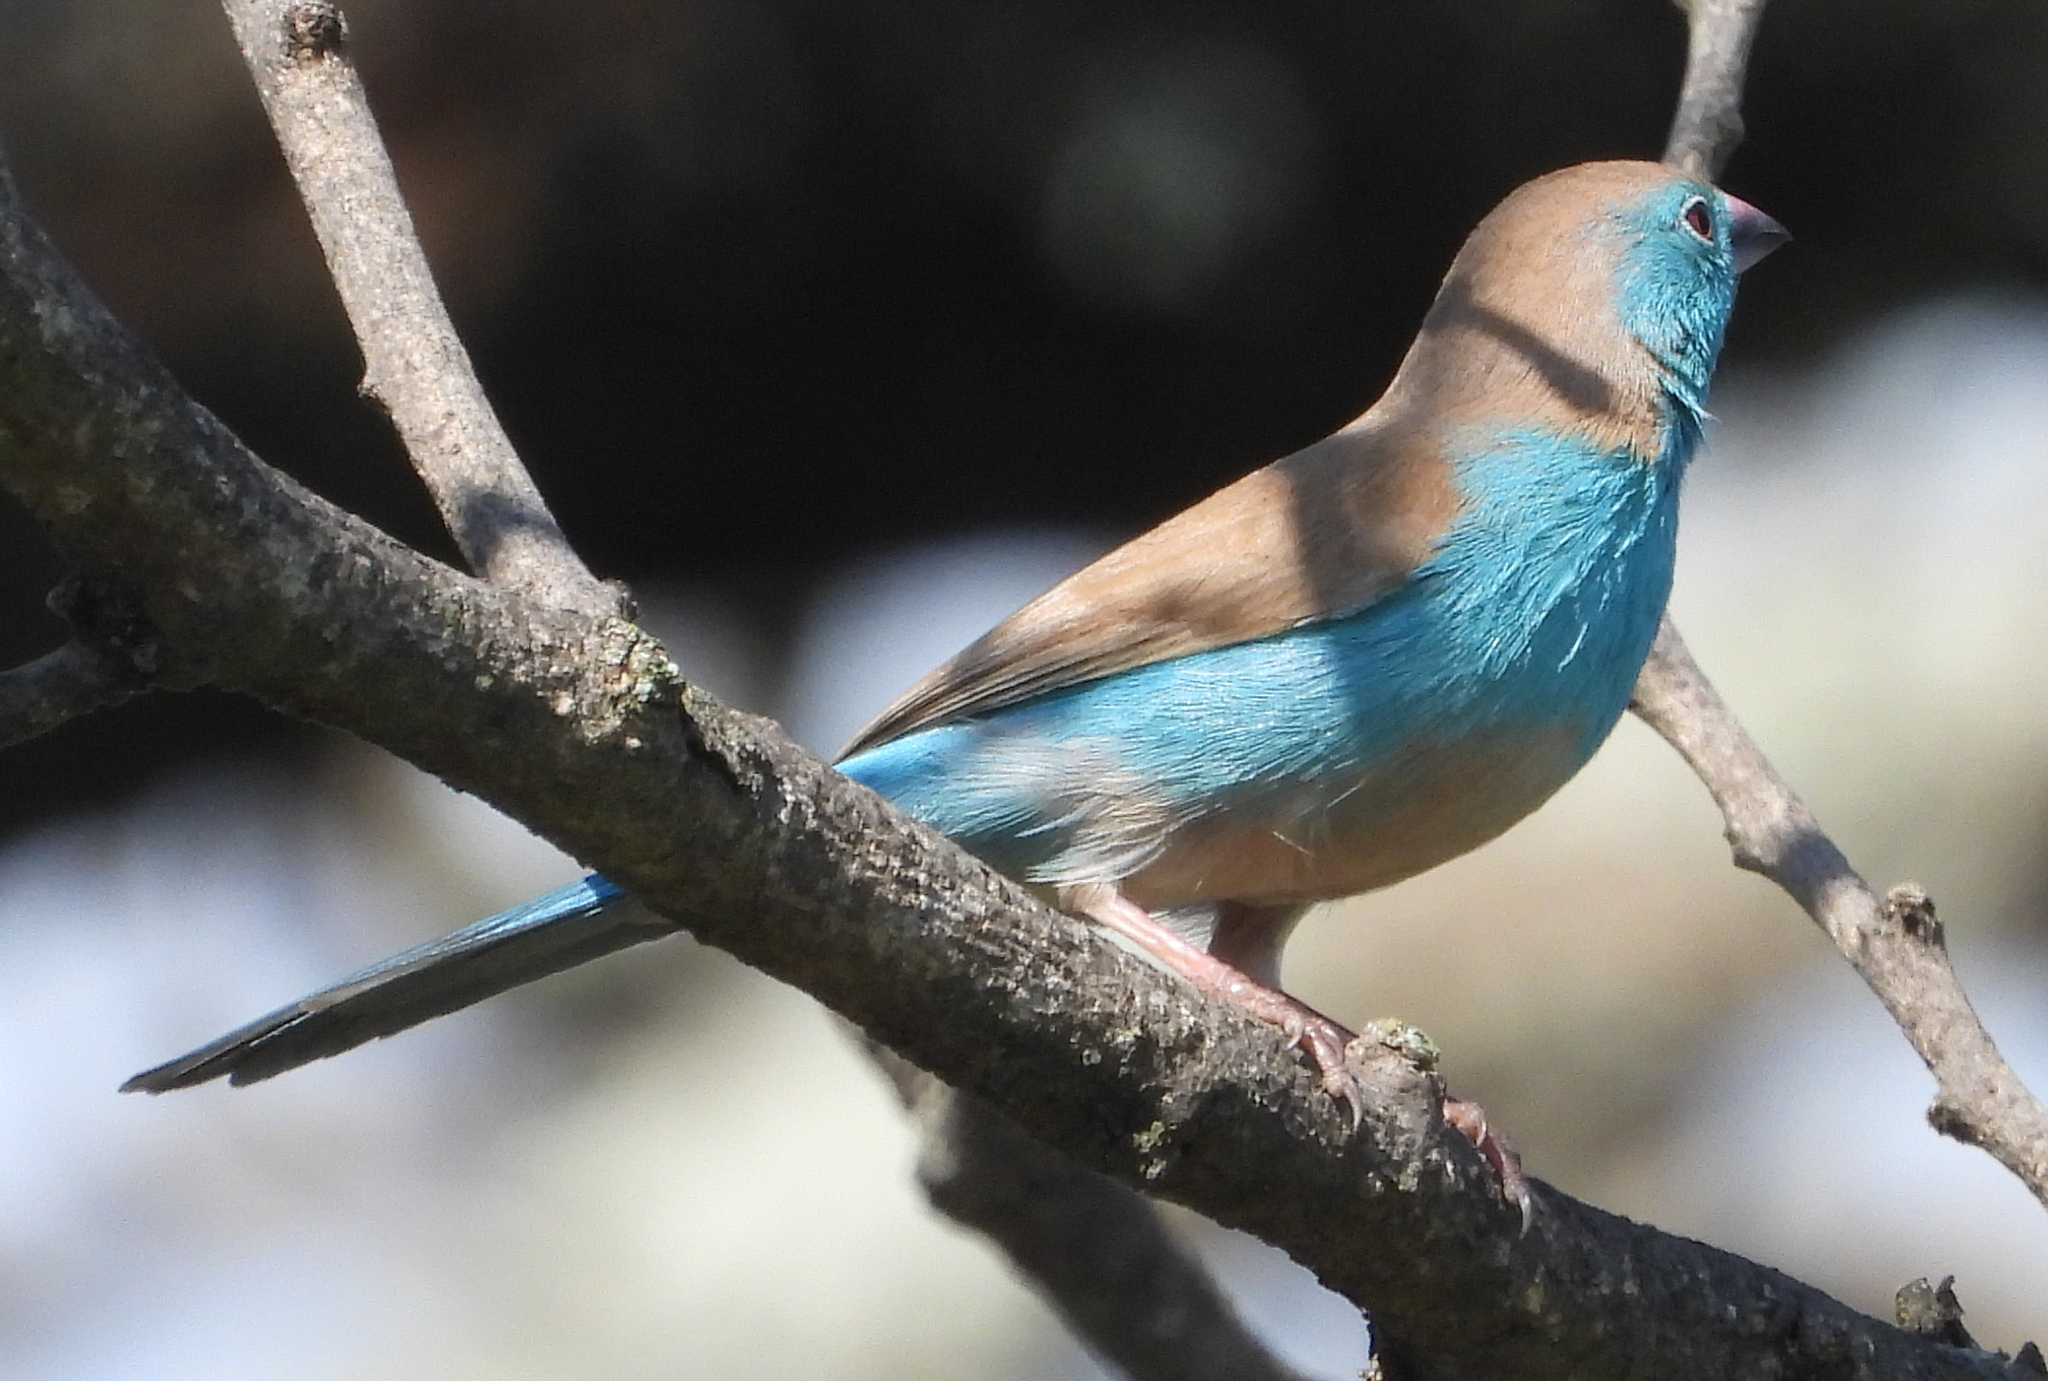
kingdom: Animalia
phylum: Chordata
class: Aves
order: Passeriformes
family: Estrildidae
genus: Uraeginthus
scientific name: Uraeginthus angolensis
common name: Blue waxbill
